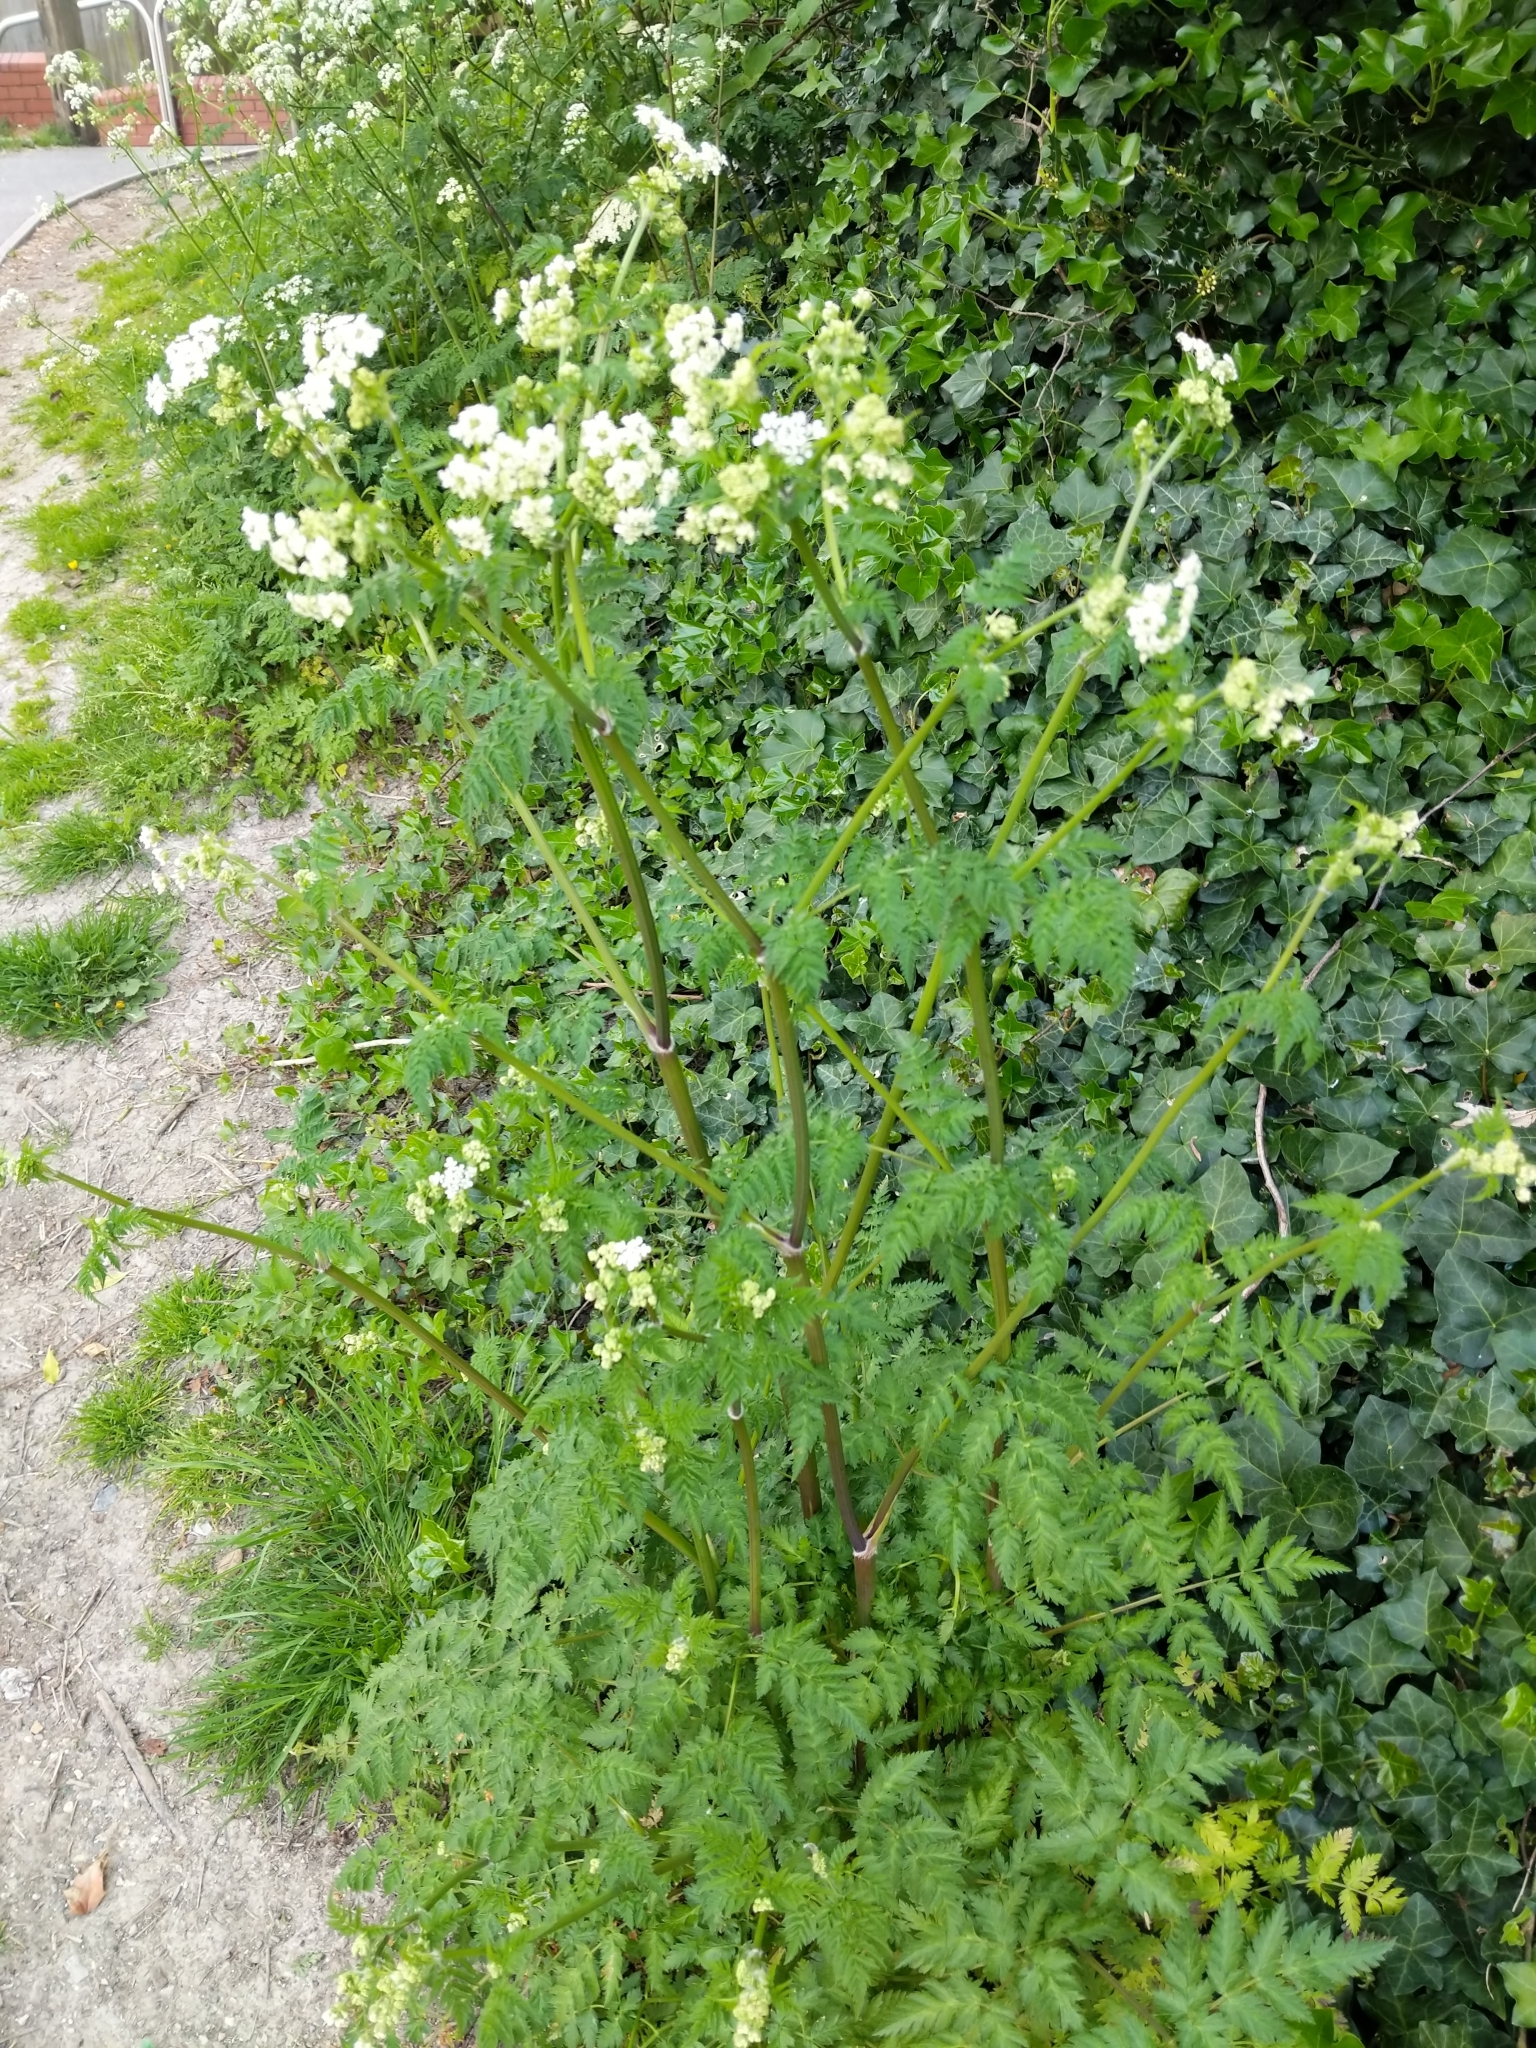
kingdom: Plantae
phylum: Tracheophyta
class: Magnoliopsida
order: Apiales
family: Apiaceae
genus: Anthriscus
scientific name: Anthriscus sylvestris
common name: Cow parsley
